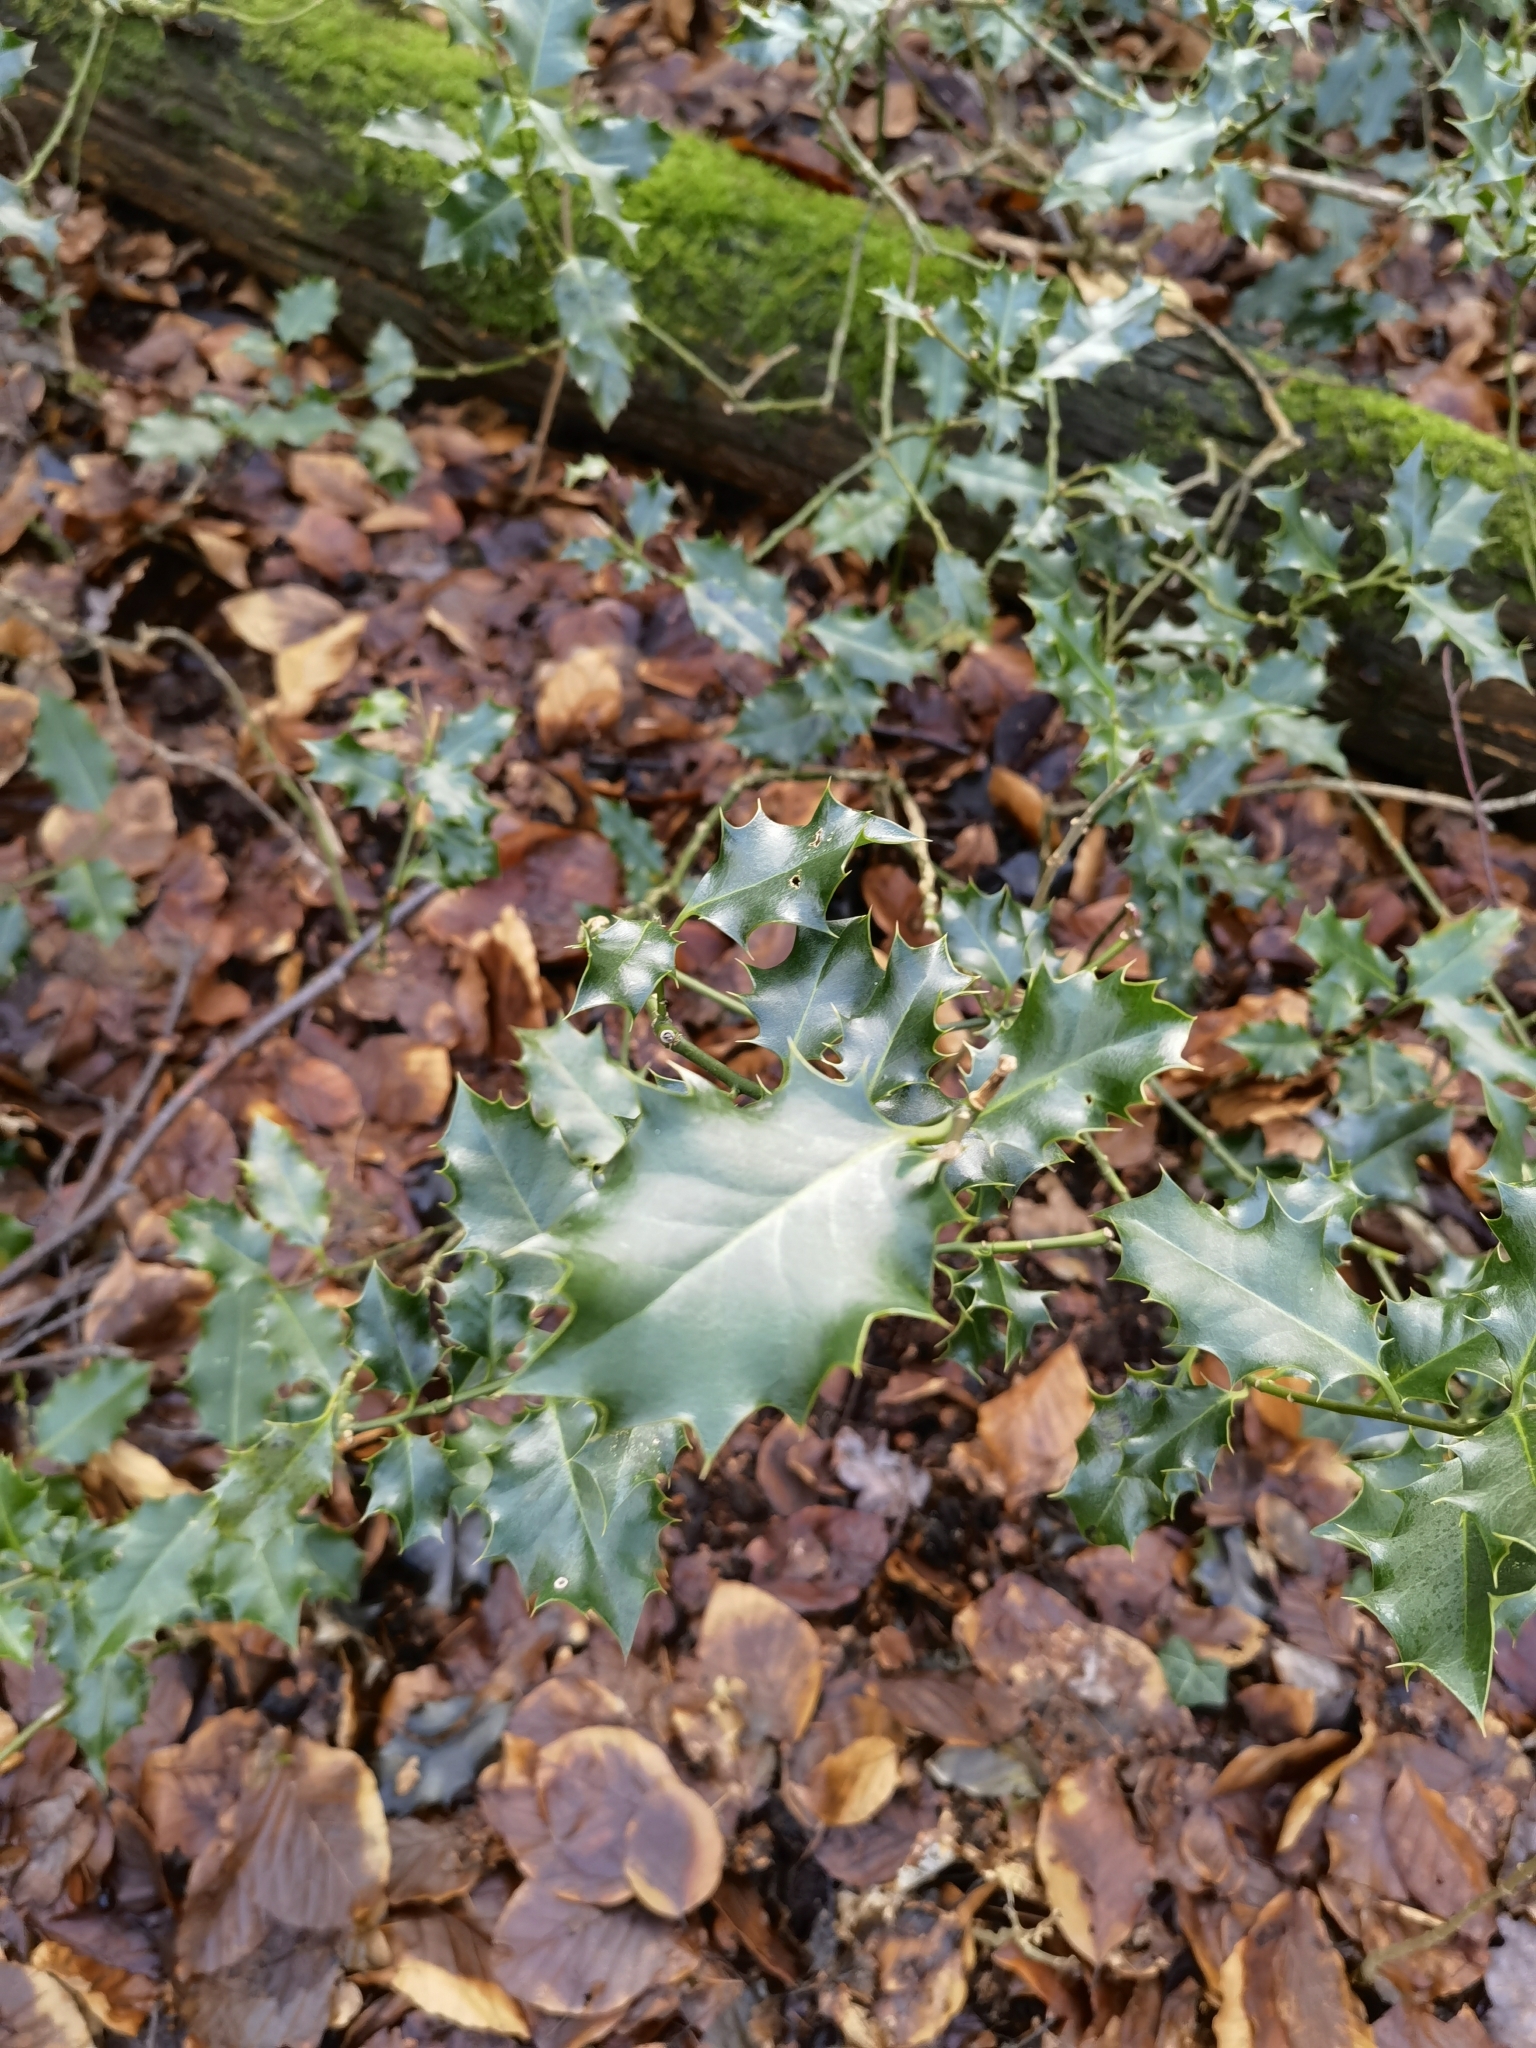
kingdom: Plantae
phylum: Tracheophyta
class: Magnoliopsida
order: Aquifoliales
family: Aquifoliaceae
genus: Ilex
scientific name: Ilex aquifolium
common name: English holly
